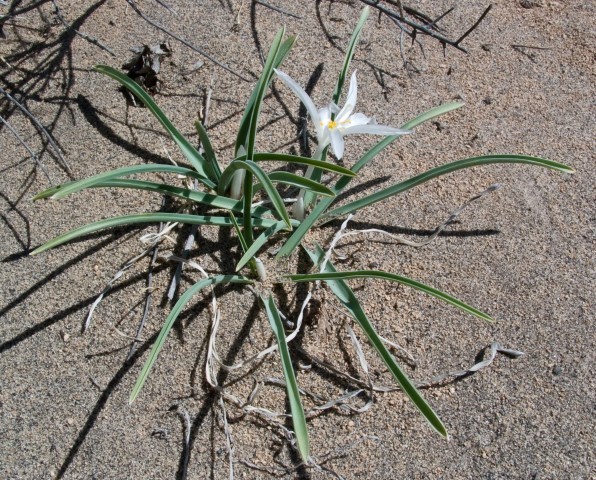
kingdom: Plantae
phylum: Tracheophyta
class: Liliopsida
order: Asparagales
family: Asparagaceae
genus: Leucocrinum
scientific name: Leucocrinum montanum
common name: Mountain-lily
